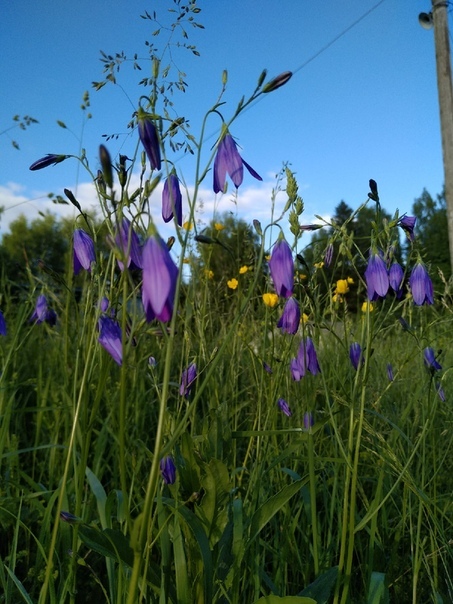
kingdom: Plantae
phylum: Tracheophyta
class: Magnoliopsida
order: Asterales
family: Campanulaceae
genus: Campanula
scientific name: Campanula patula
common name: Spreading bellflower
